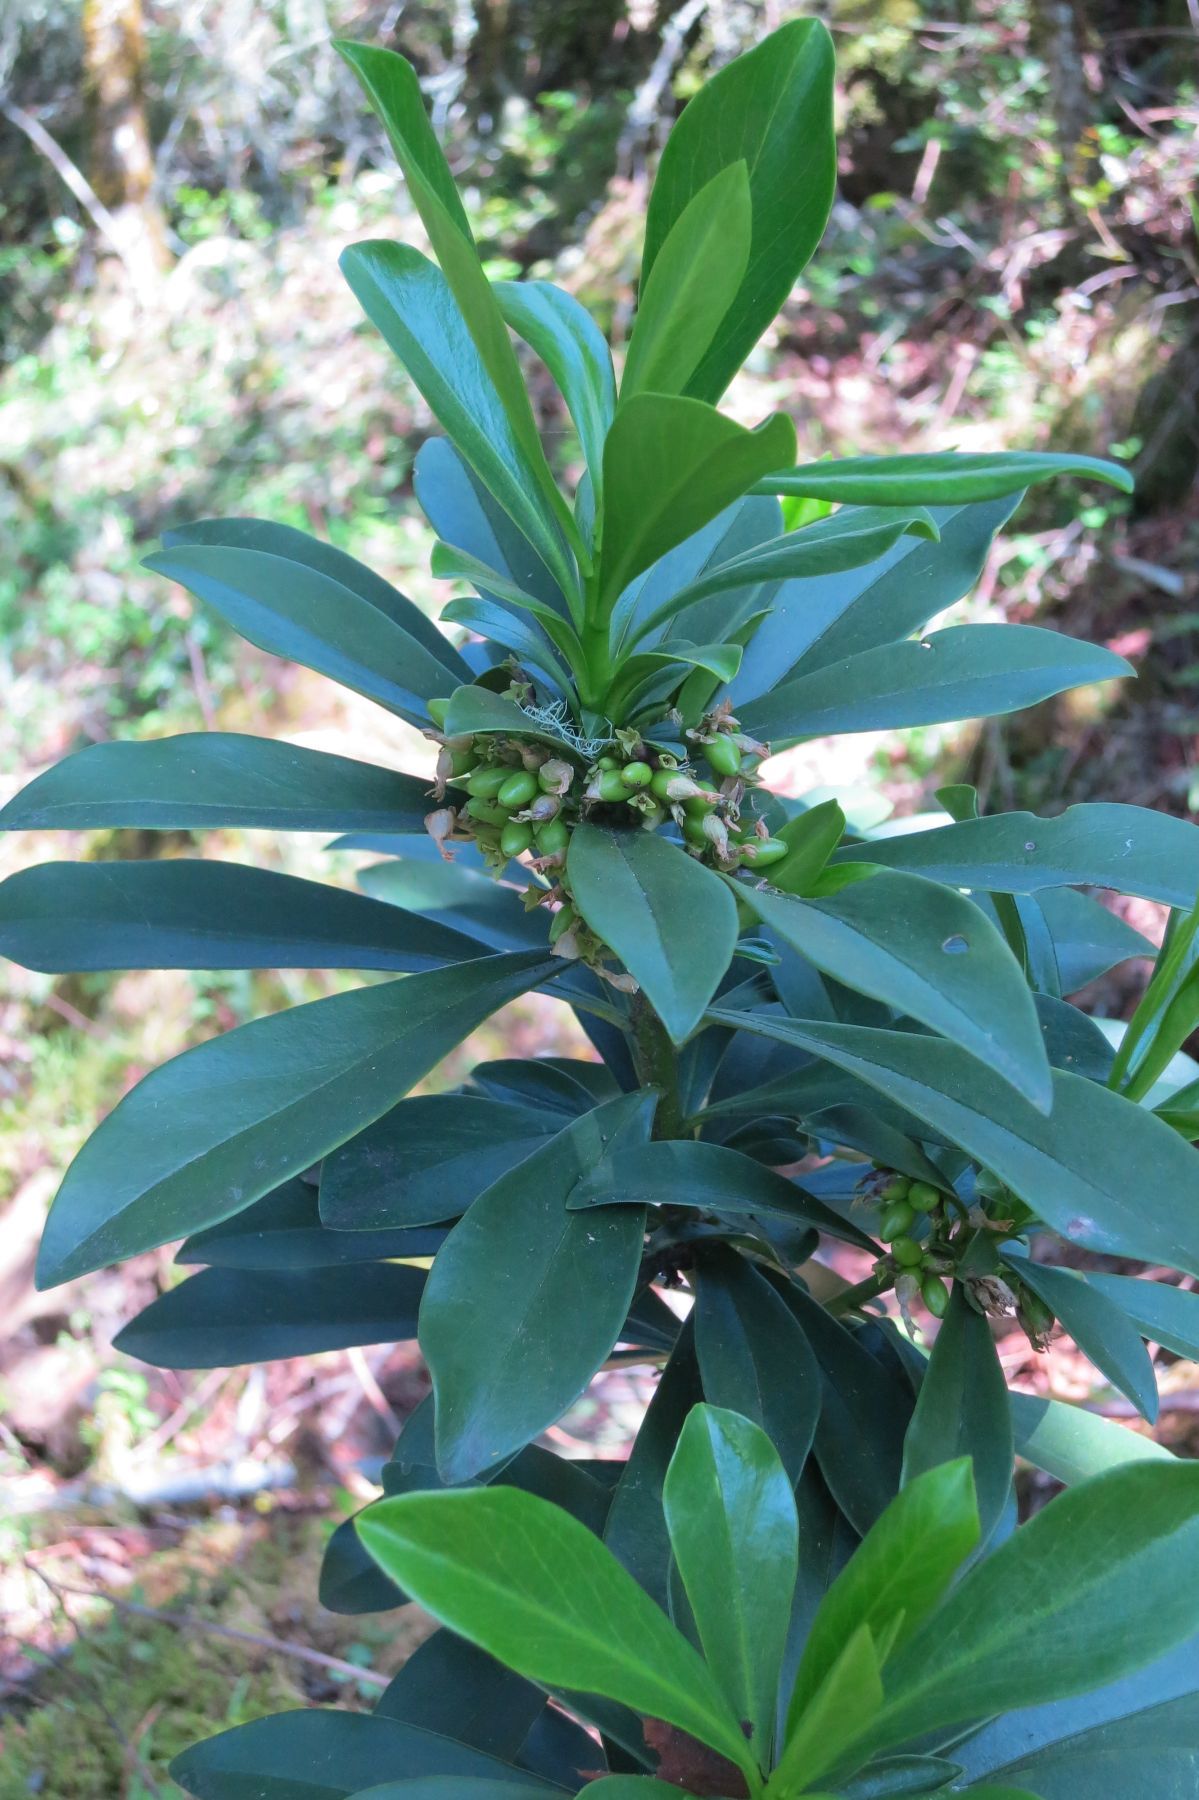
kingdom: Plantae
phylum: Tracheophyta
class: Magnoliopsida
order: Malvales
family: Thymelaeaceae
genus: Daphne
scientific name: Daphne laureola
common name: Spurge-laurel
